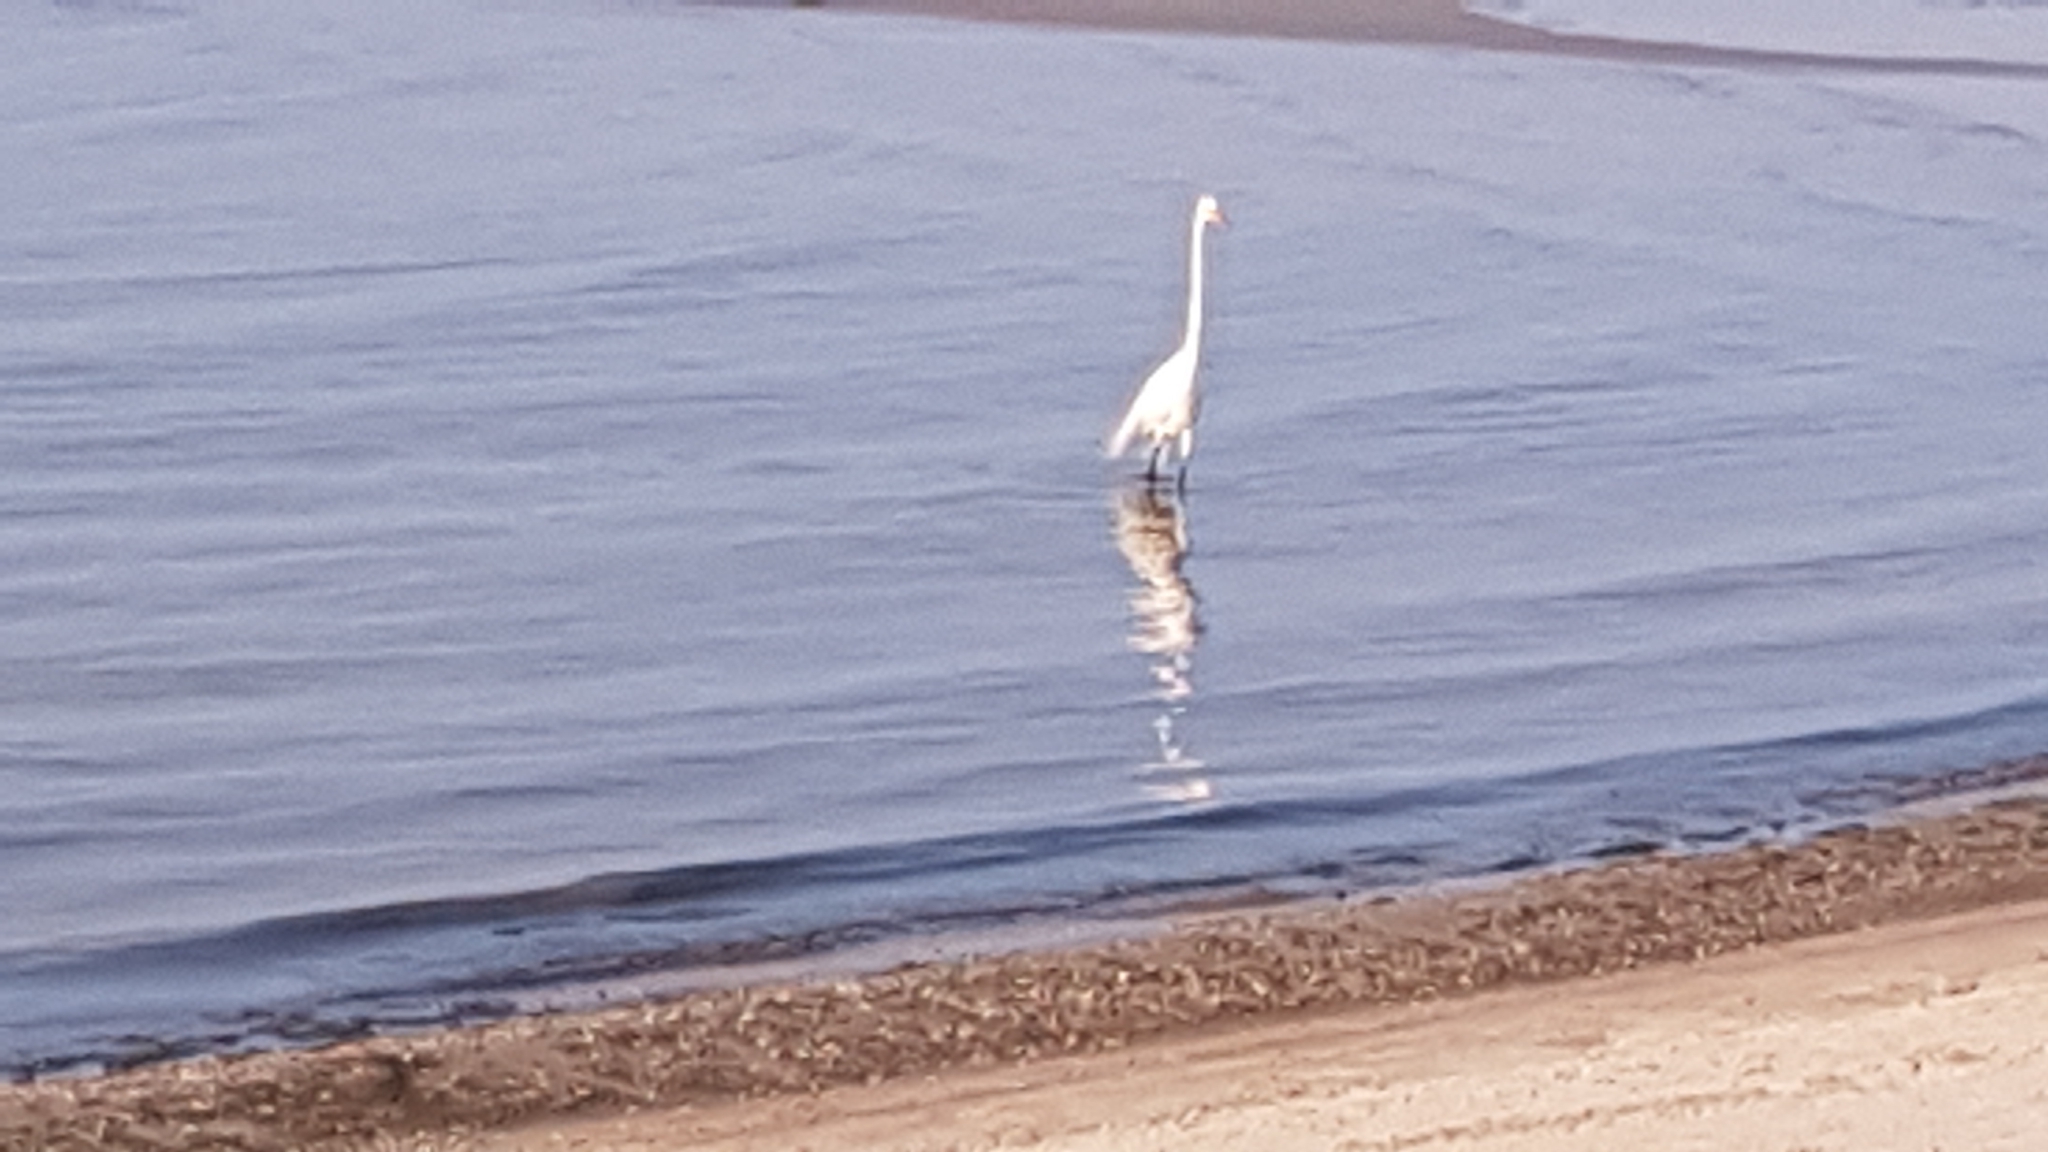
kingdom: Animalia
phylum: Chordata
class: Aves
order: Pelecaniformes
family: Ardeidae
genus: Ardea
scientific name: Ardea alba
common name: Great egret
